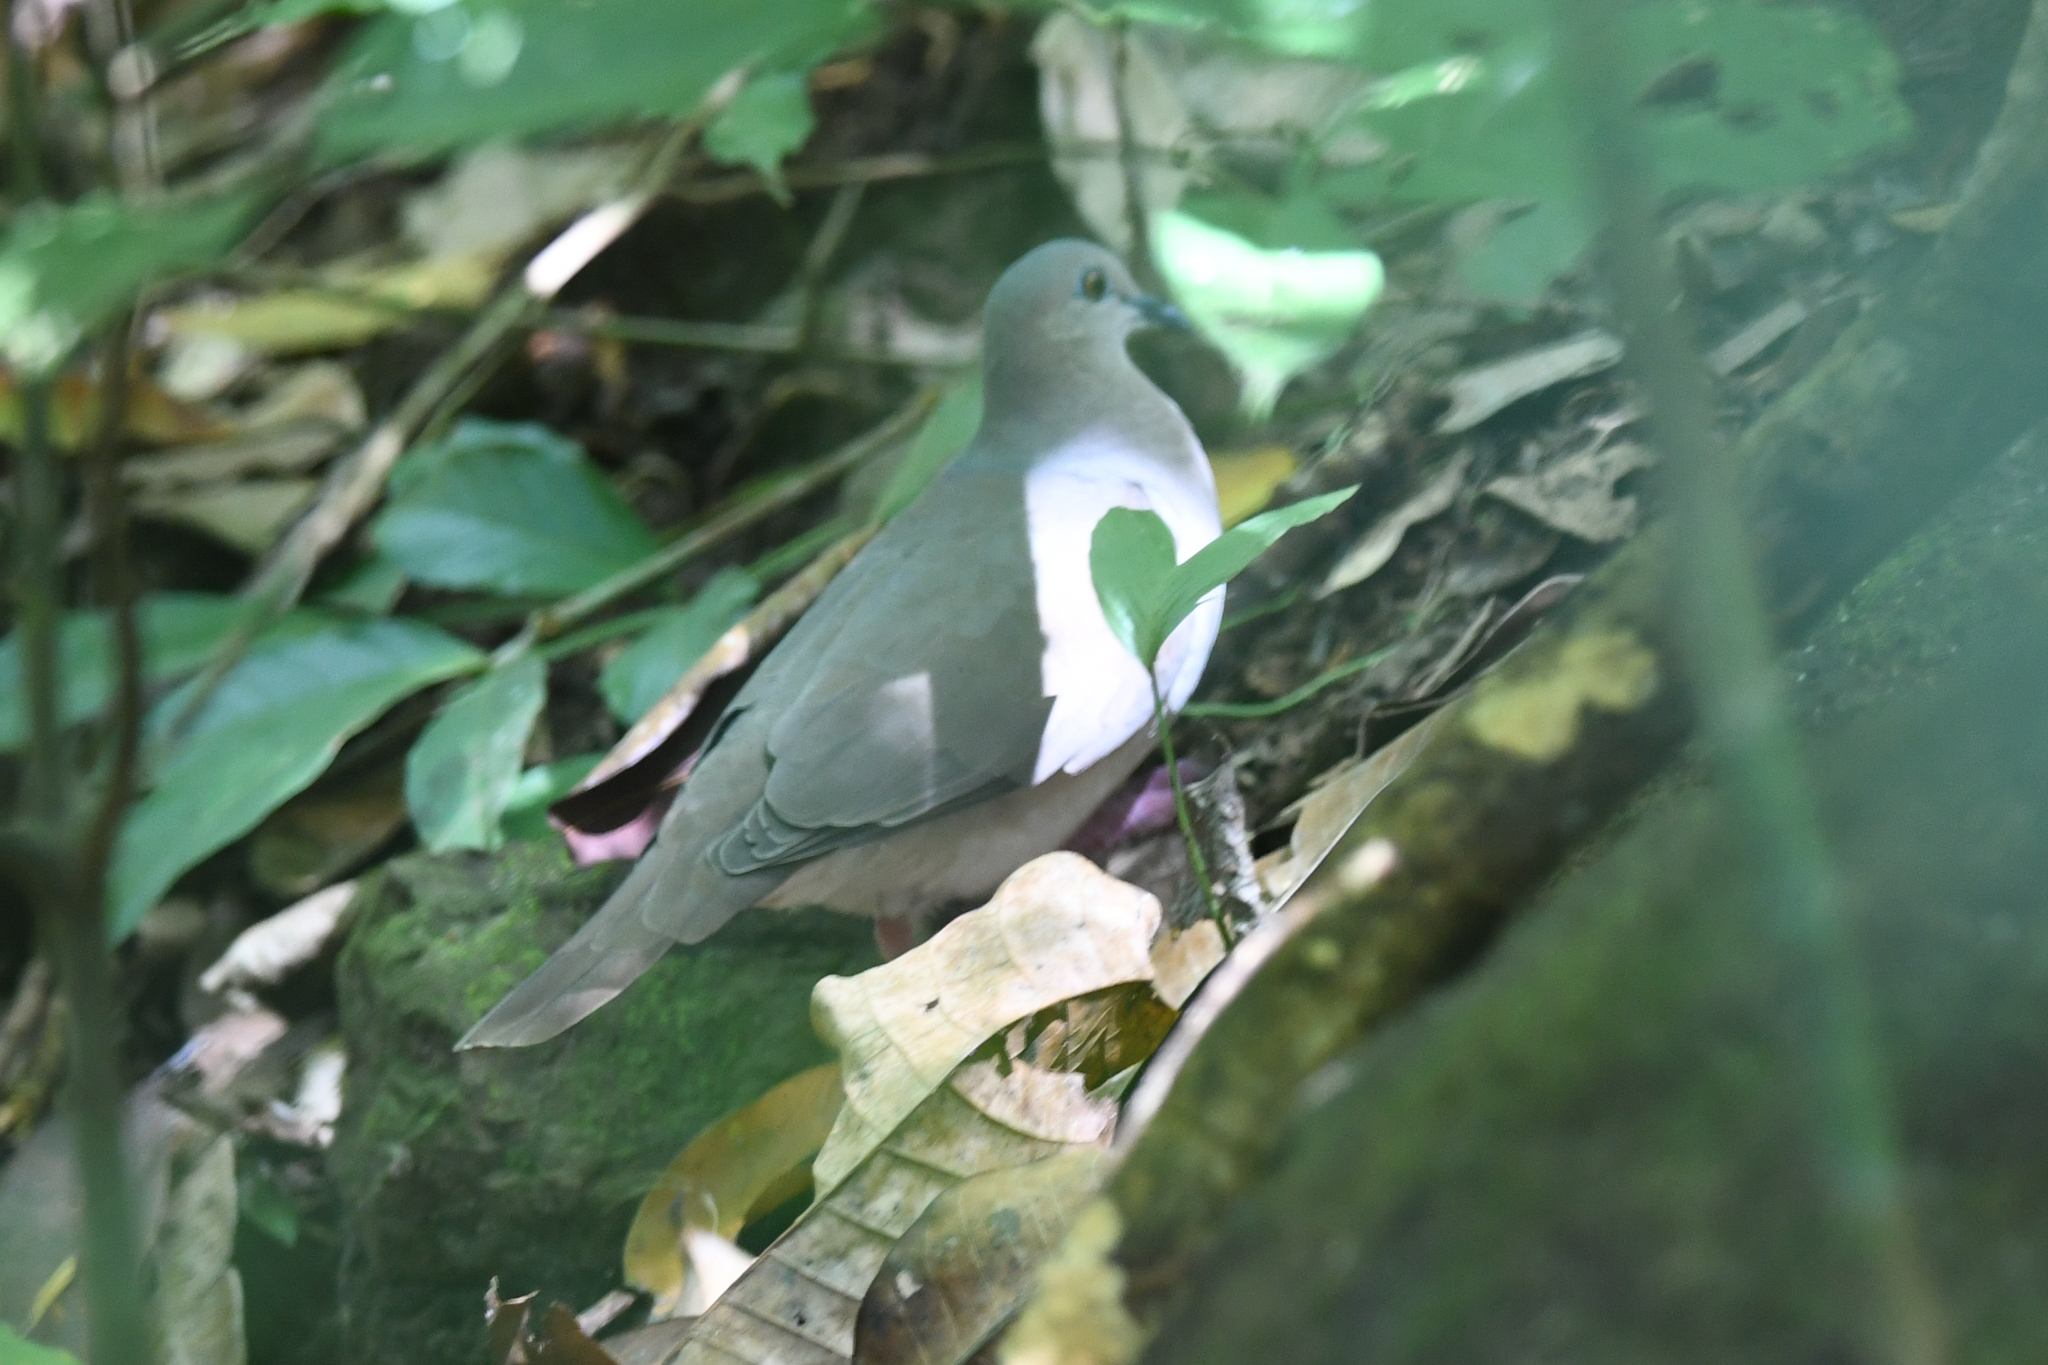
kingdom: Animalia
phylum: Chordata
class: Aves
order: Columbiformes
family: Columbidae
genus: Leptotila
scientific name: Leptotila verreauxi
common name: White-tipped dove
